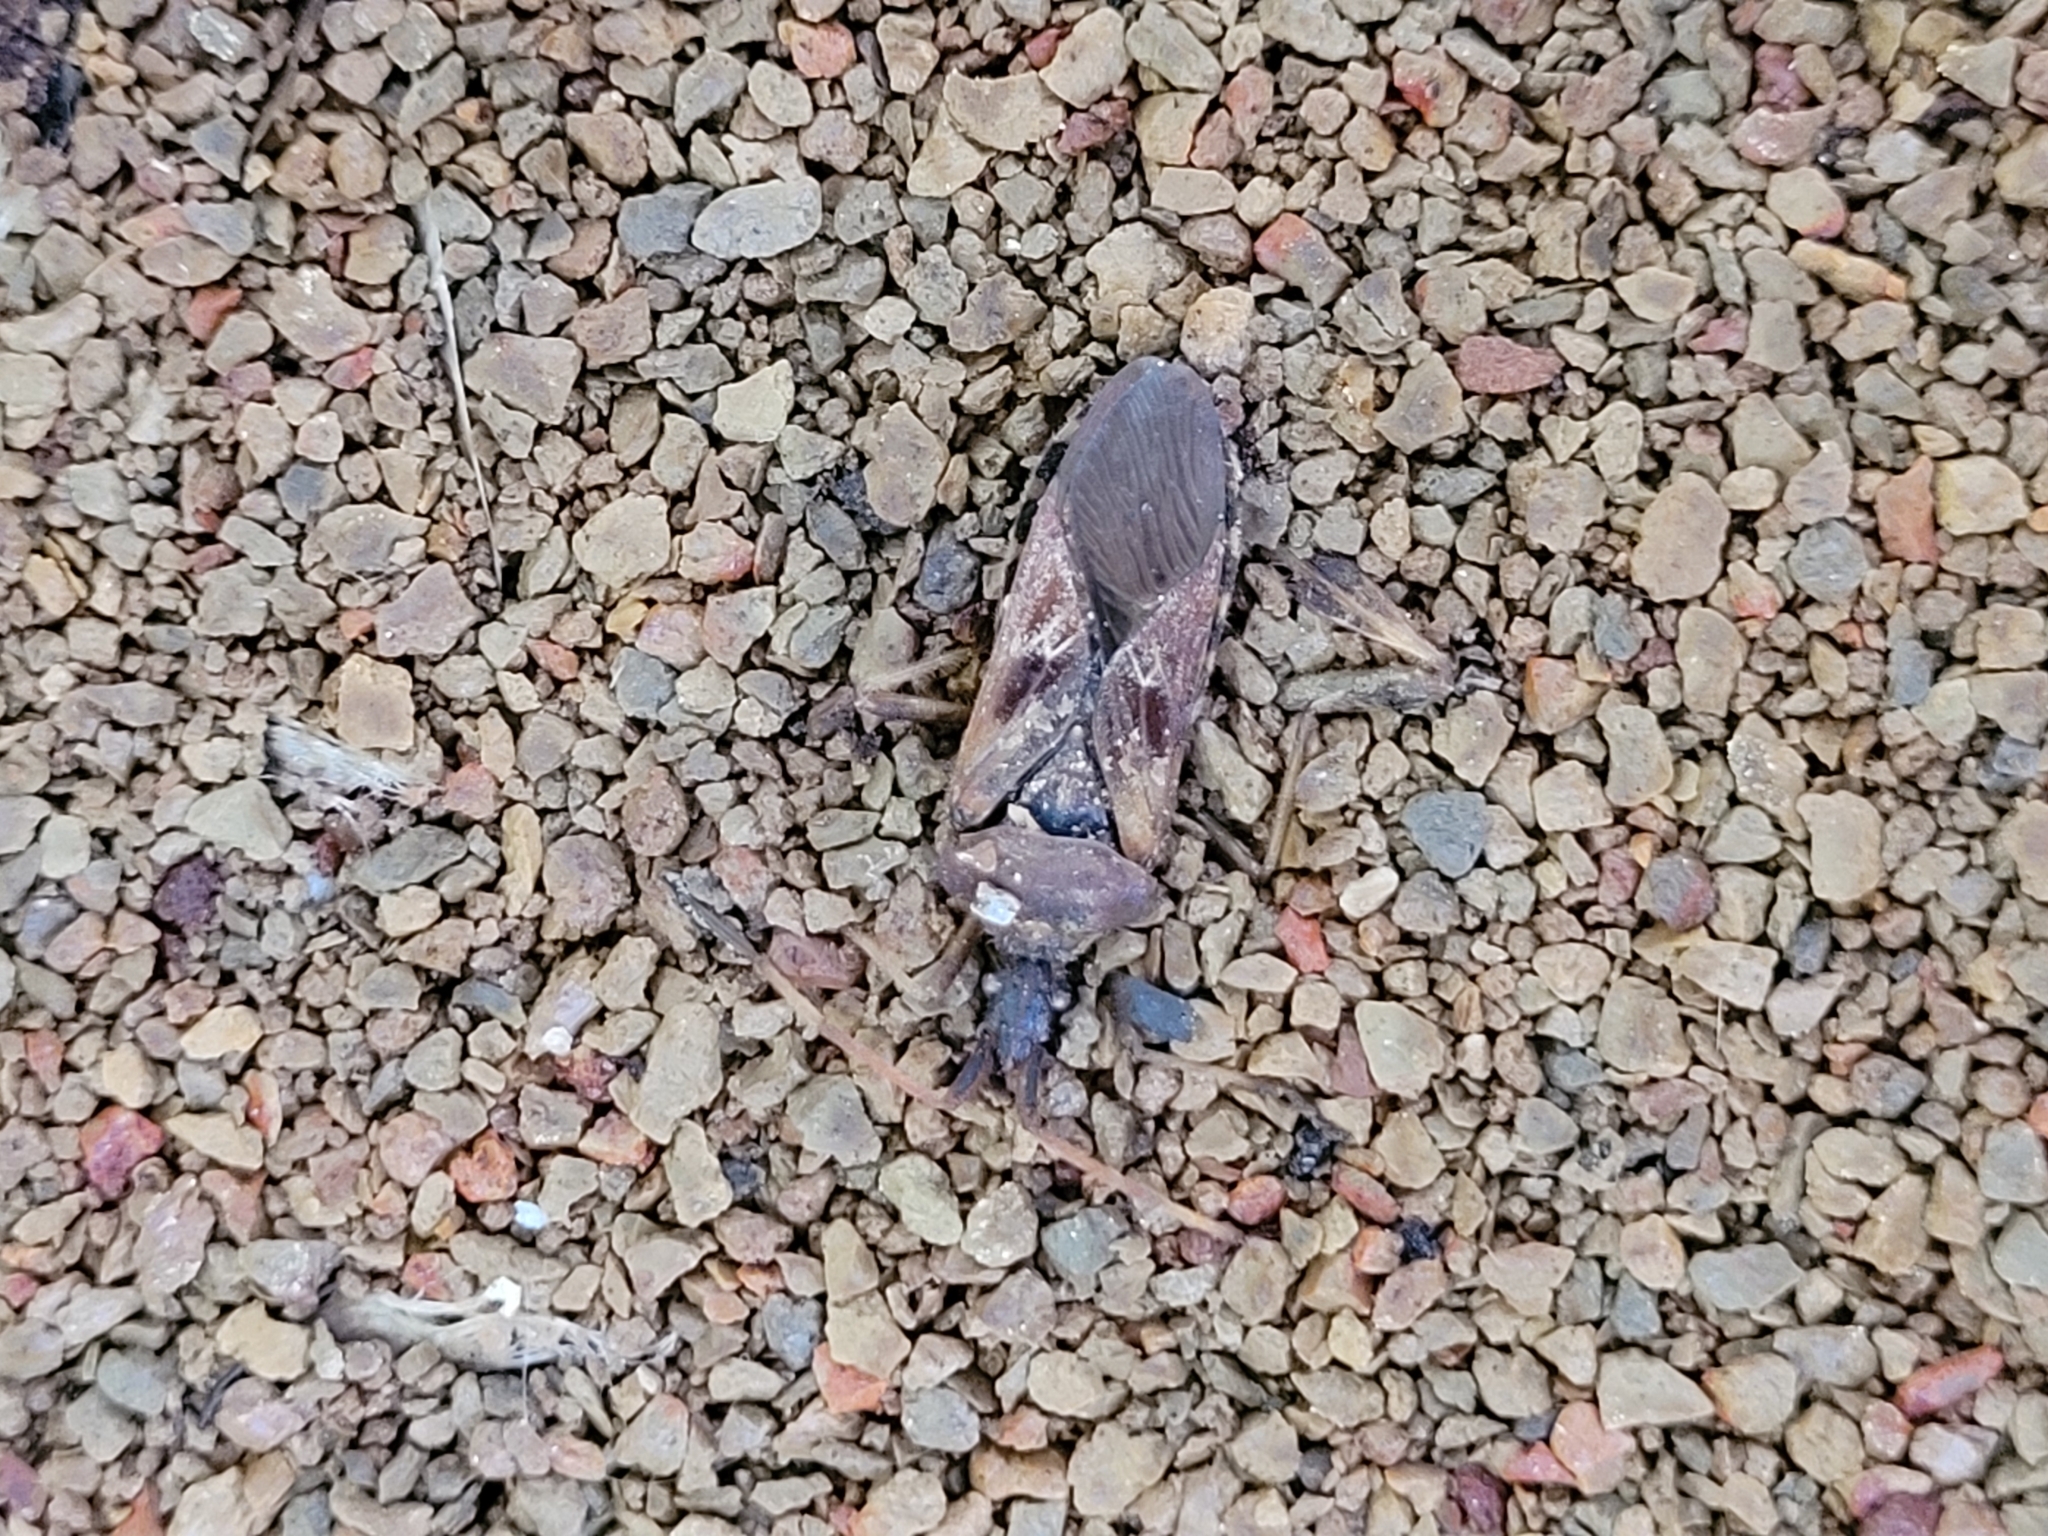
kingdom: Animalia
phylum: Arthropoda
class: Insecta
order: Hemiptera
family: Coreidae
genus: Leptoglossus
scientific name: Leptoglossus occidentalis
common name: Western conifer-seed bug
